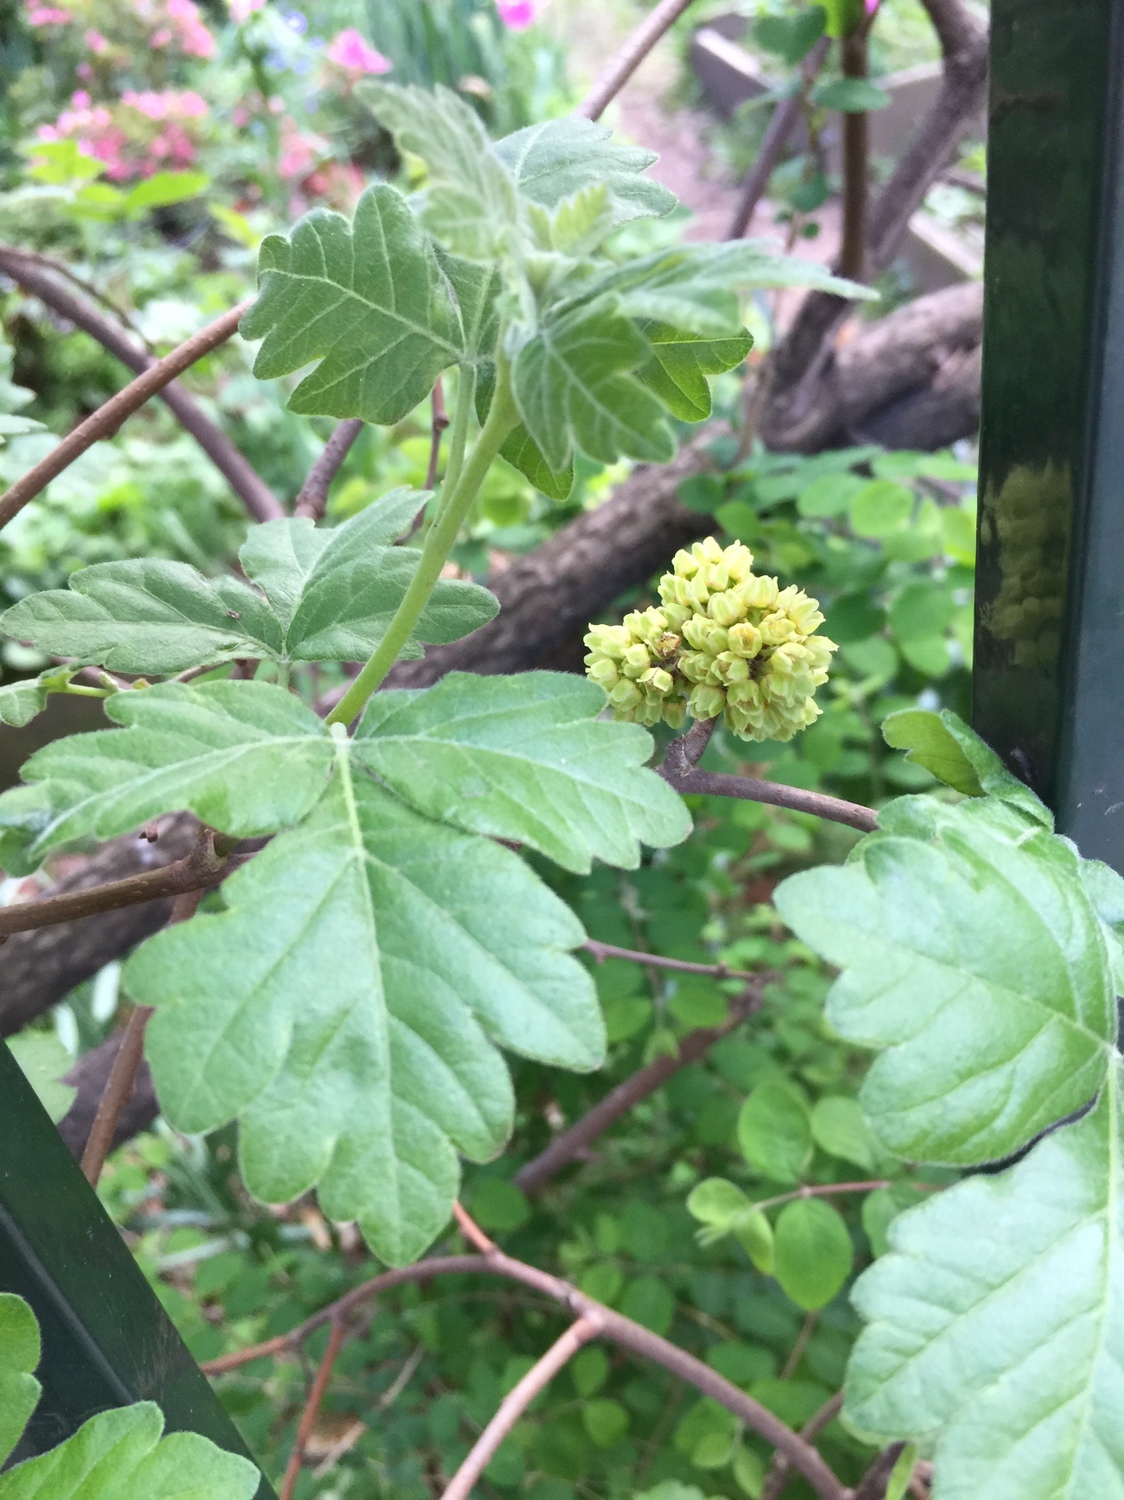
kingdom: Plantae
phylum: Tracheophyta
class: Magnoliopsida
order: Sapindales
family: Anacardiaceae
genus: Rhus
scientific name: Rhus aromatica
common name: Aromatic sumac
